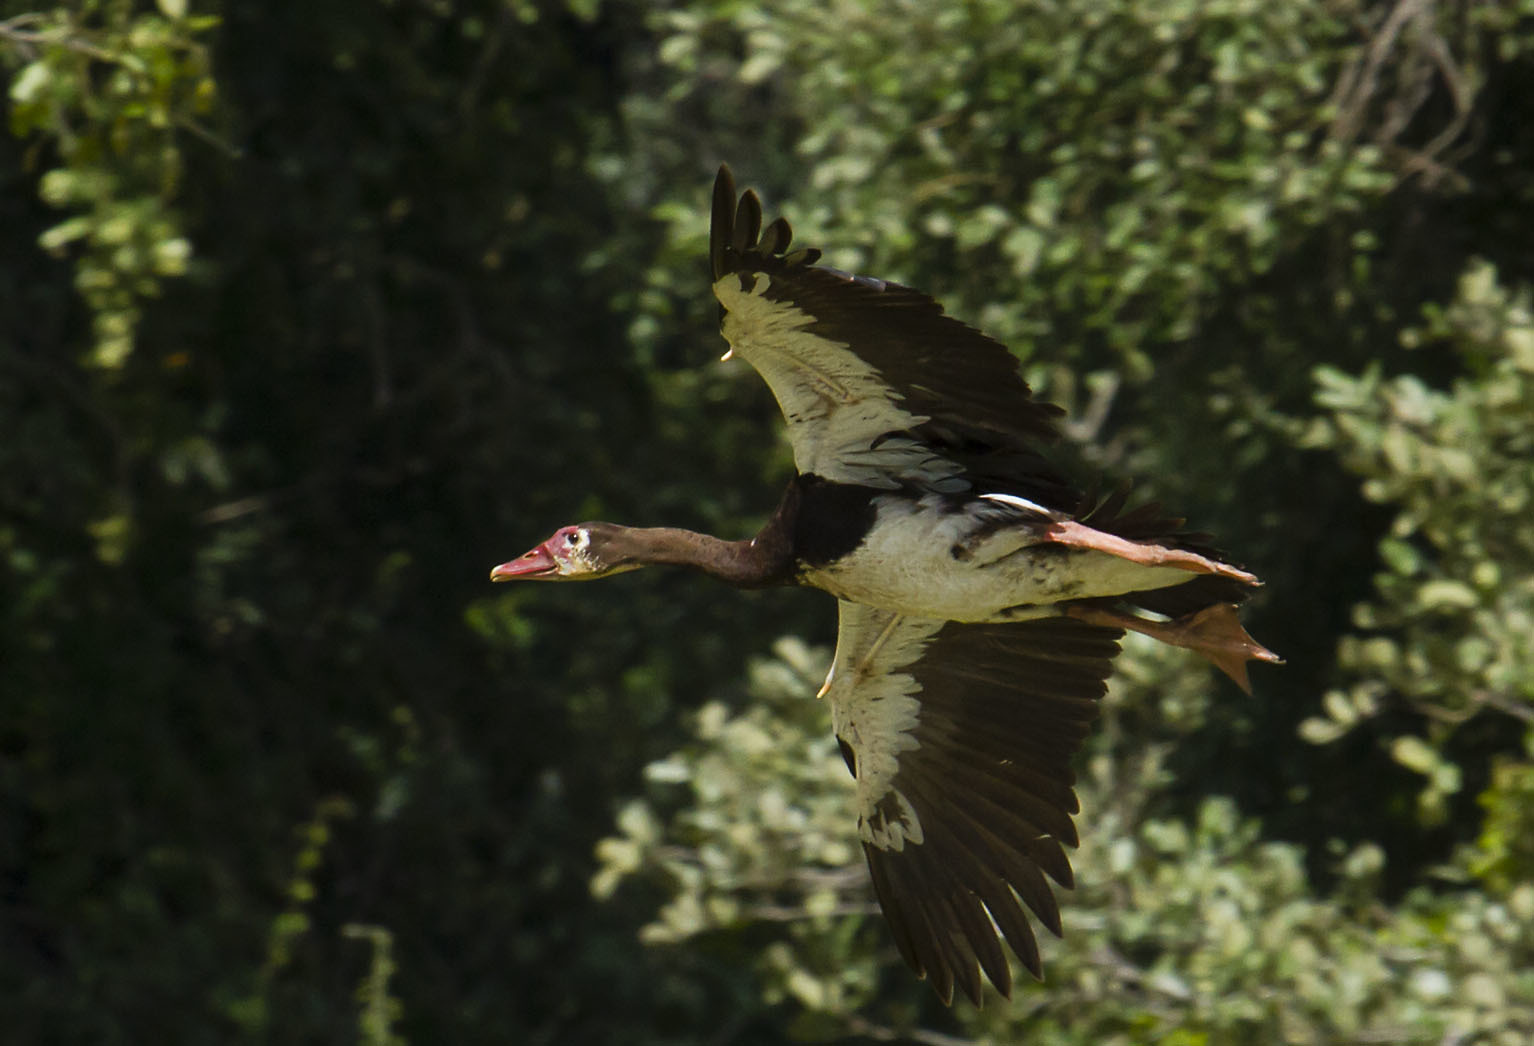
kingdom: Animalia
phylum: Chordata
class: Aves
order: Anseriformes
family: Anatidae
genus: Plectropterus
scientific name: Plectropterus gambensis
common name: Spur-winged goose
